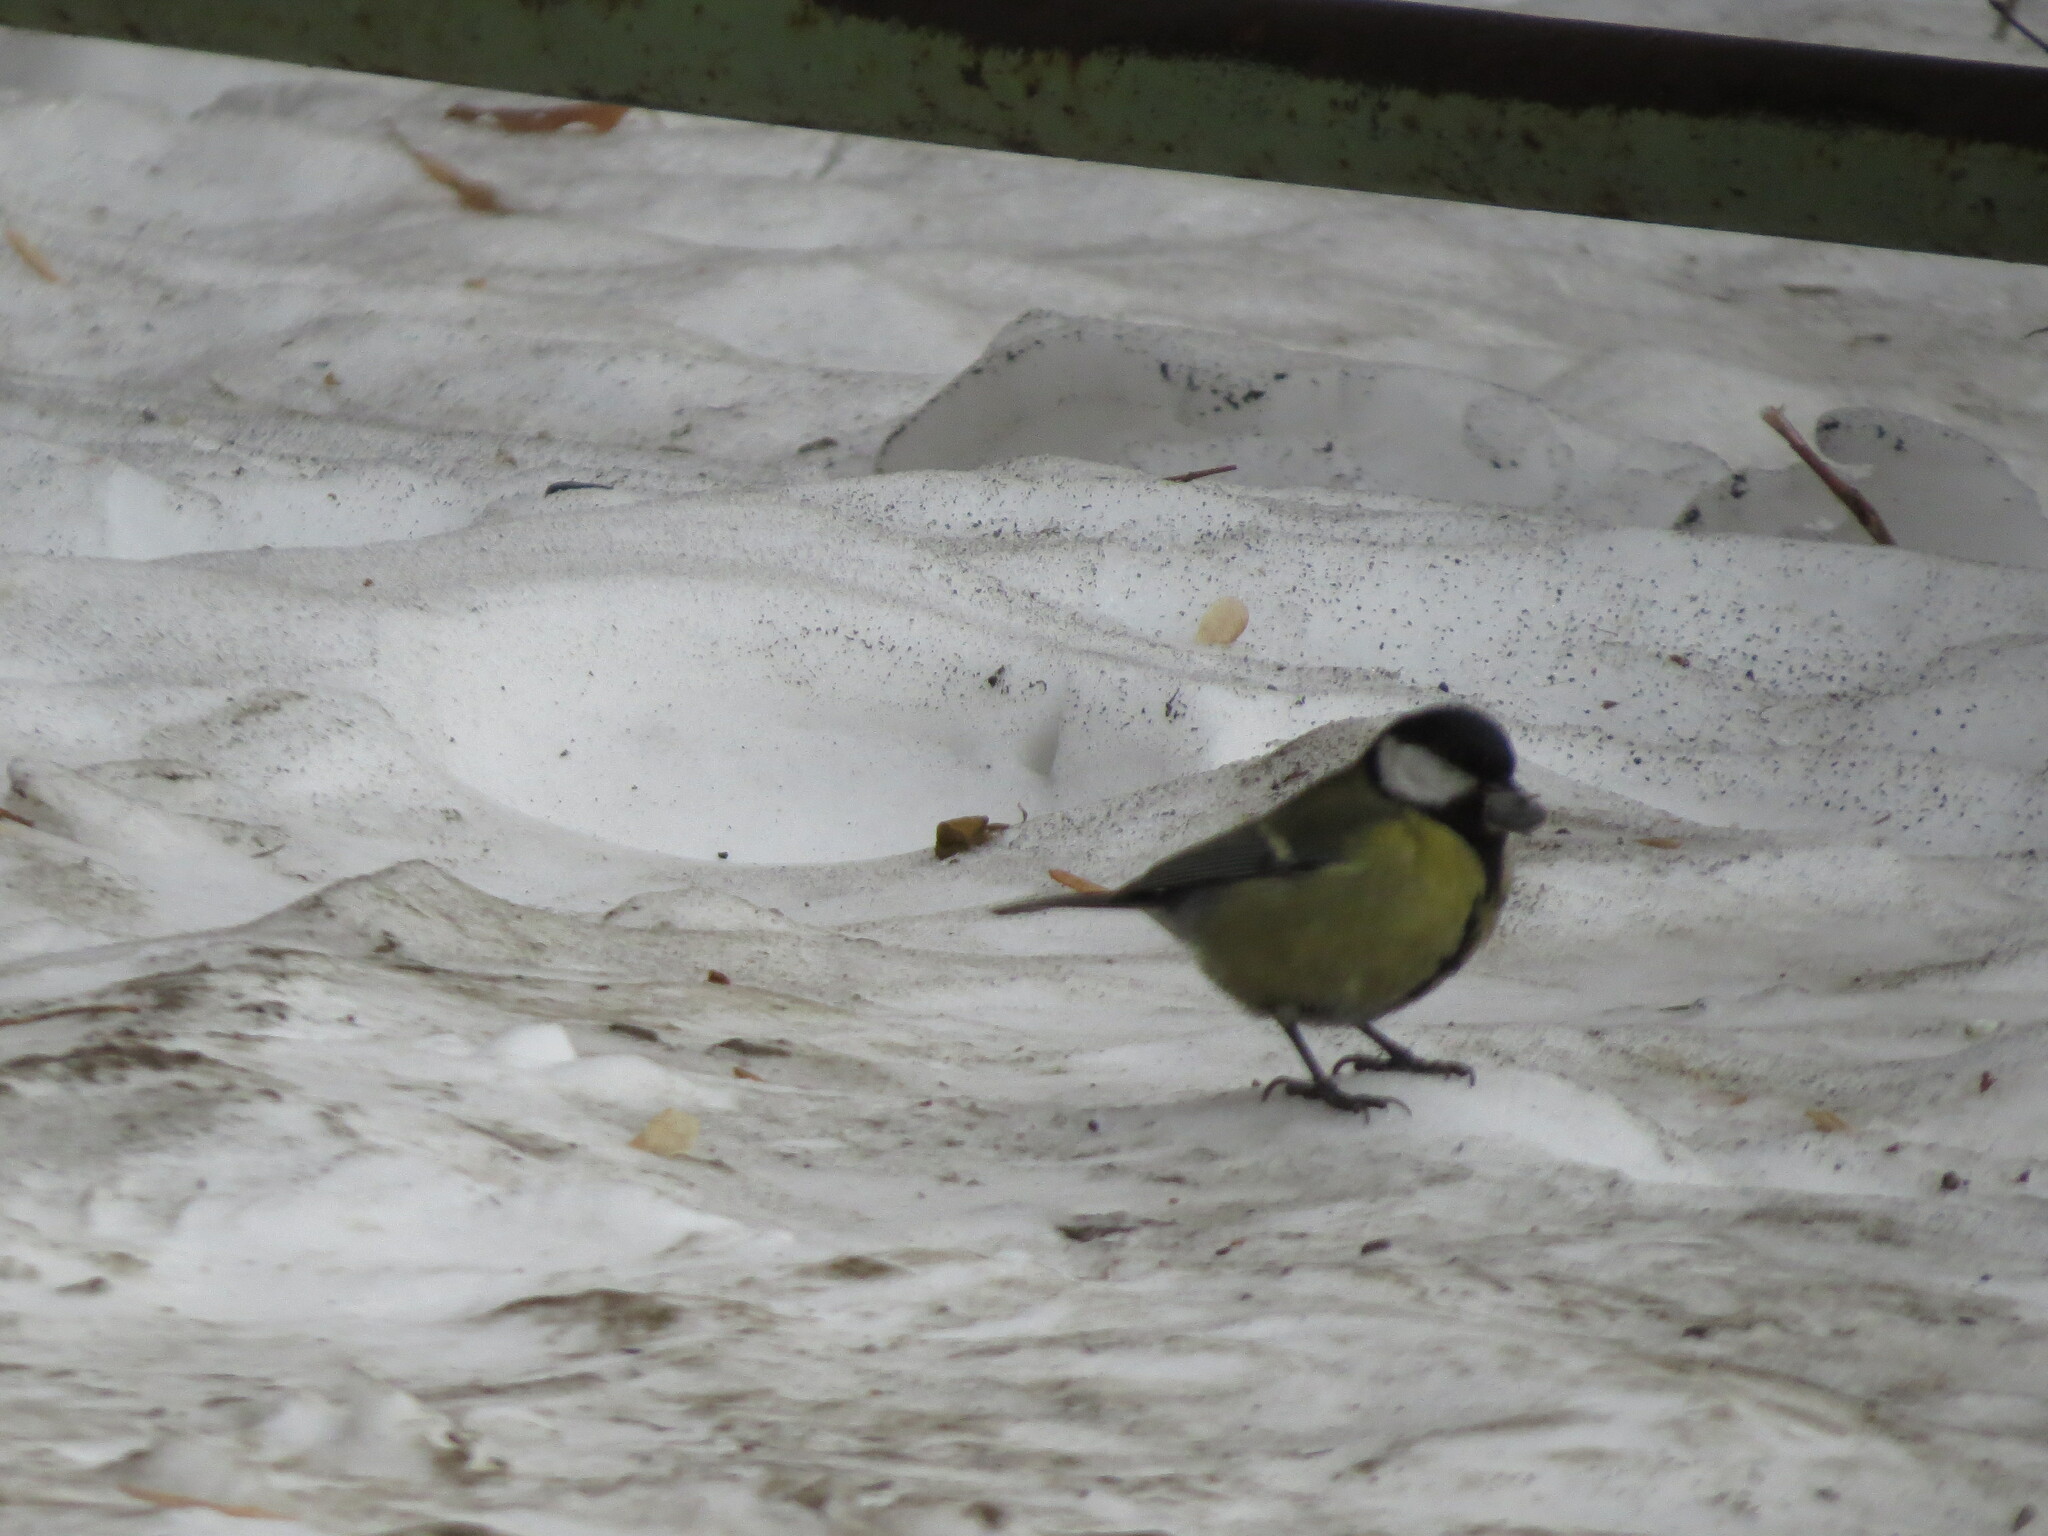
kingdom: Animalia
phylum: Chordata
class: Aves
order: Passeriformes
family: Paridae
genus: Parus
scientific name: Parus major
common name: Great tit
